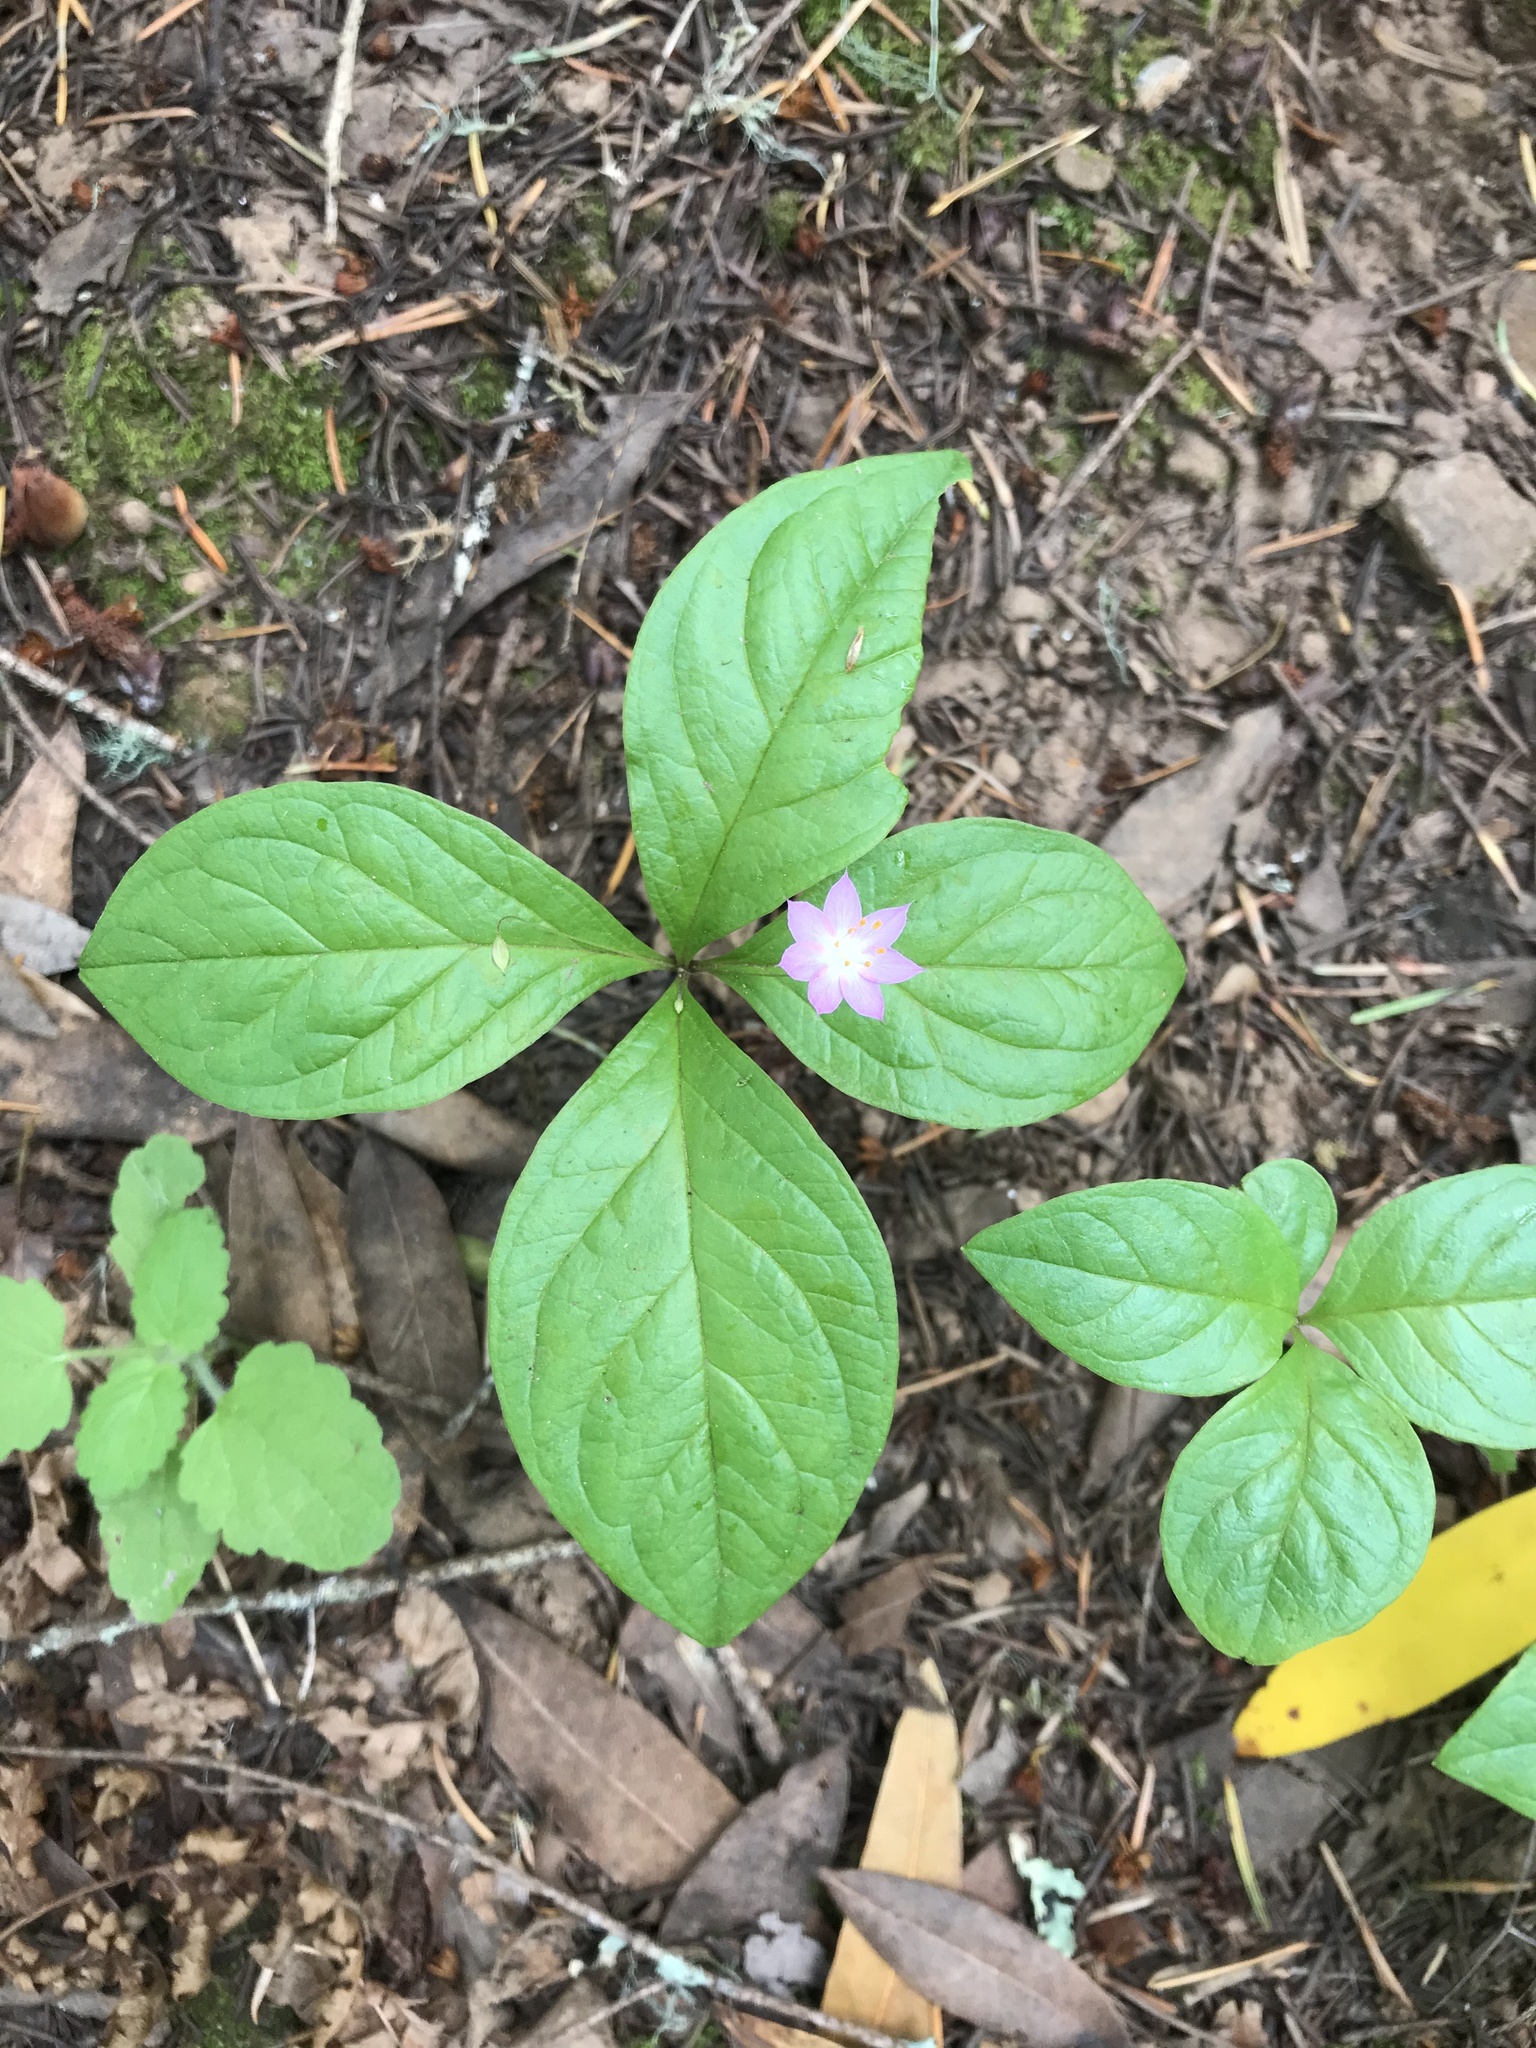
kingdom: Plantae
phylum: Tracheophyta
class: Magnoliopsida
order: Ericales
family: Primulaceae
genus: Lysimachia
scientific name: Lysimachia latifolia
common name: Pacific starflower
